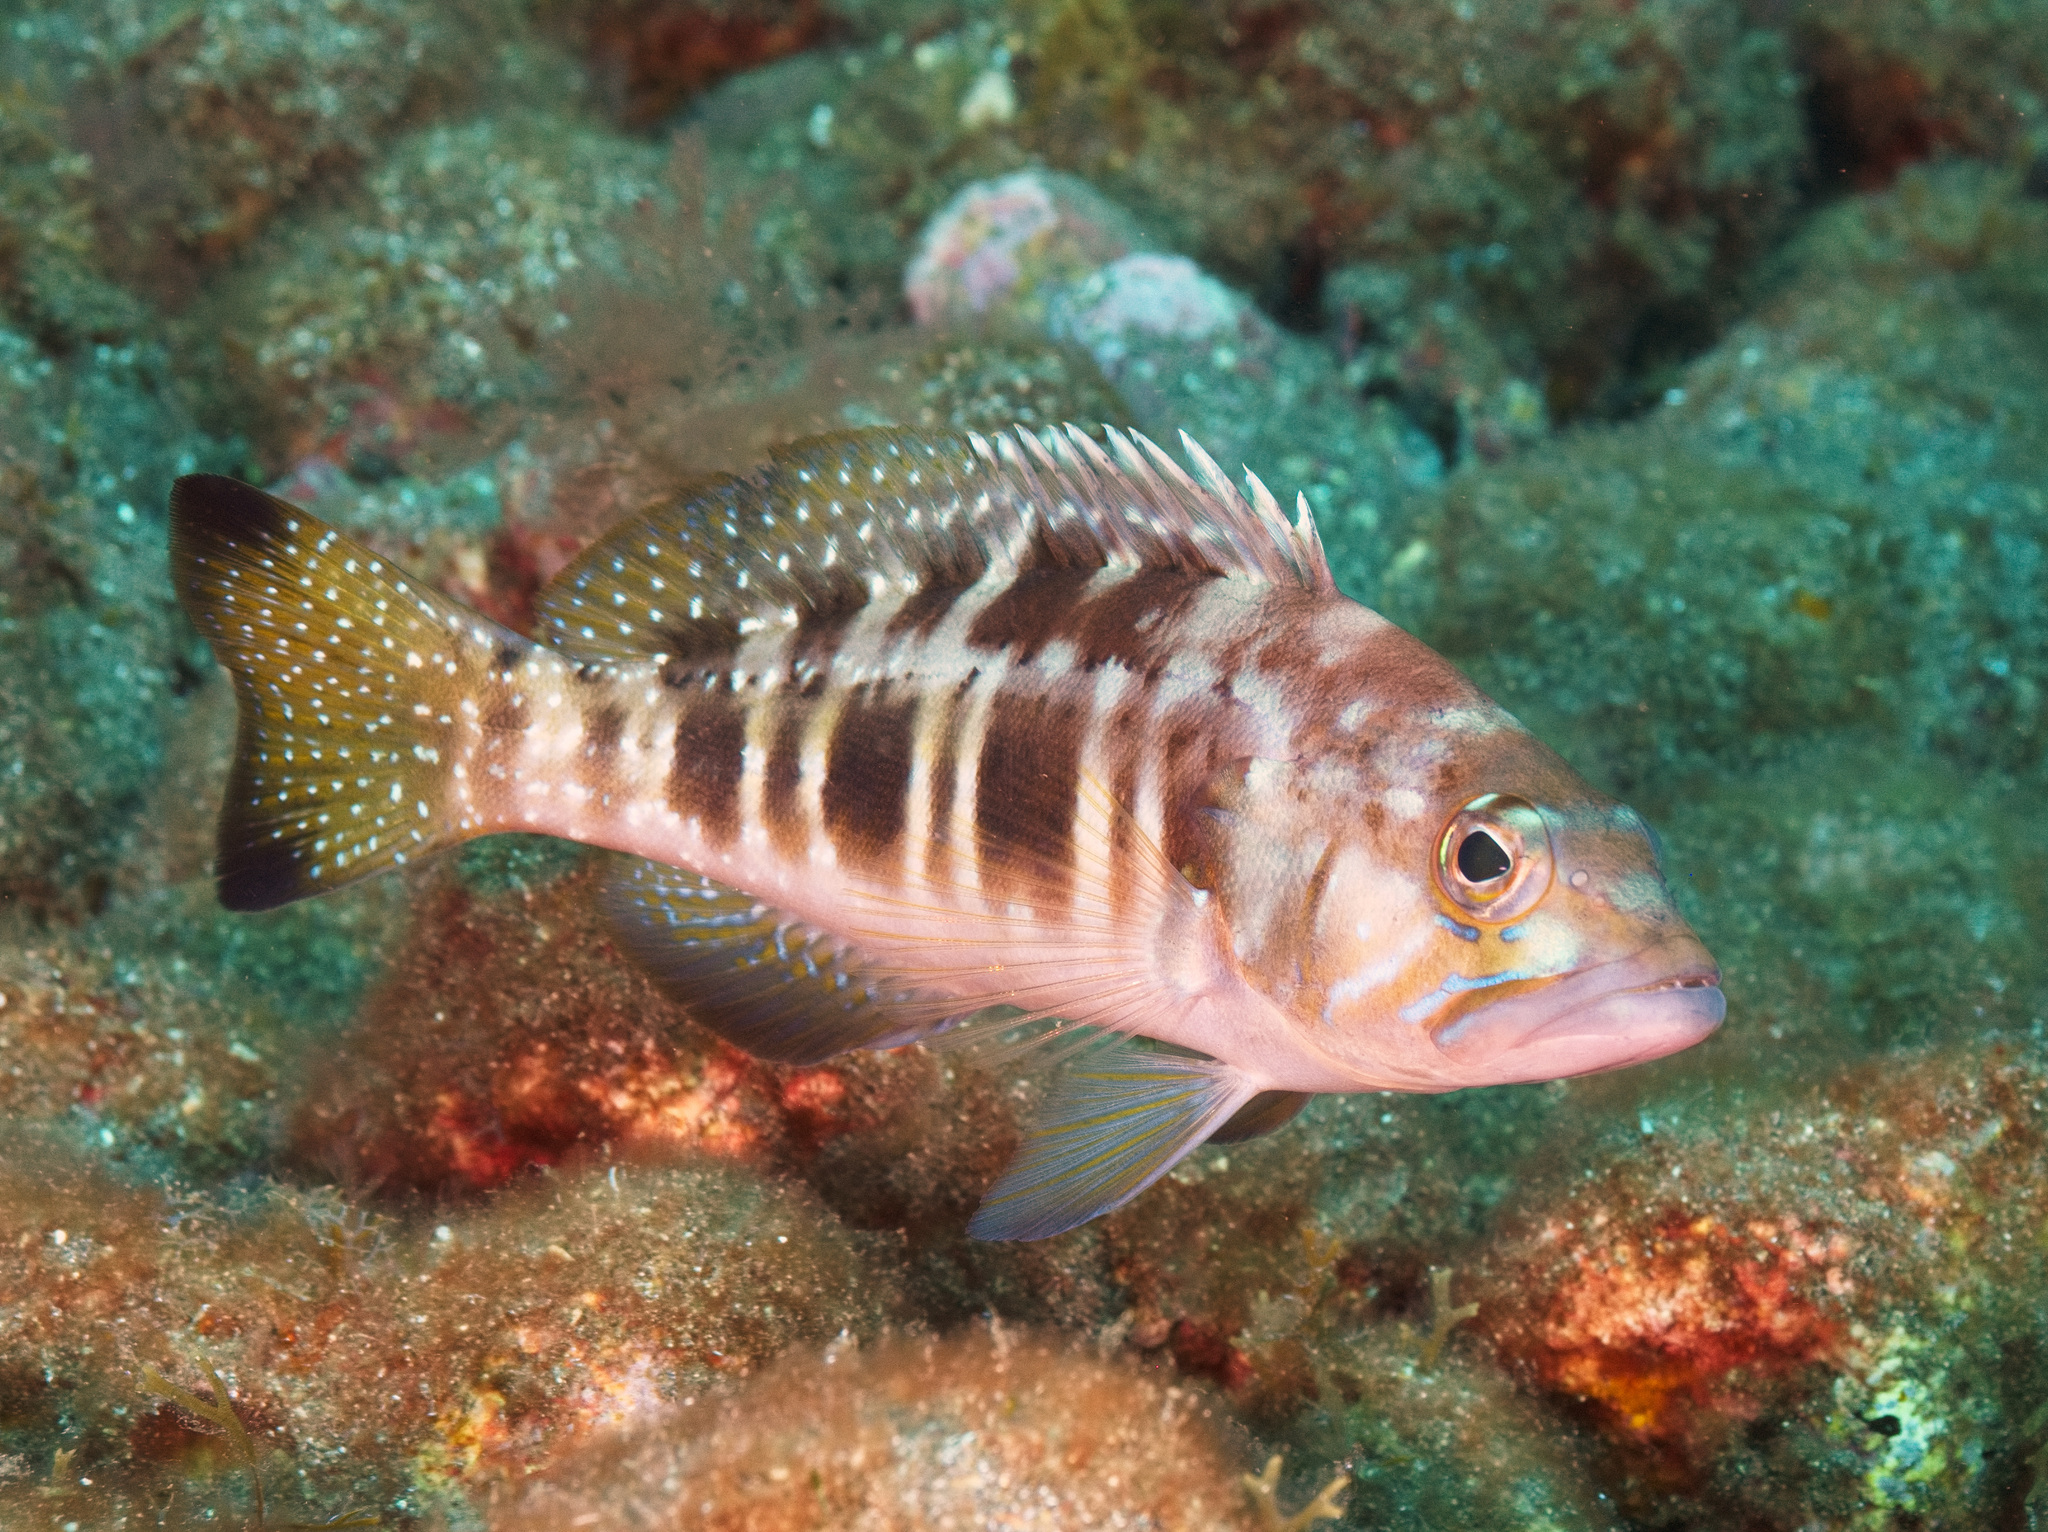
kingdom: Animalia
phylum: Chordata
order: Perciformes
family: Serranidae
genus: Serranus
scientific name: Serranus atricauda
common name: Blacktail comber
